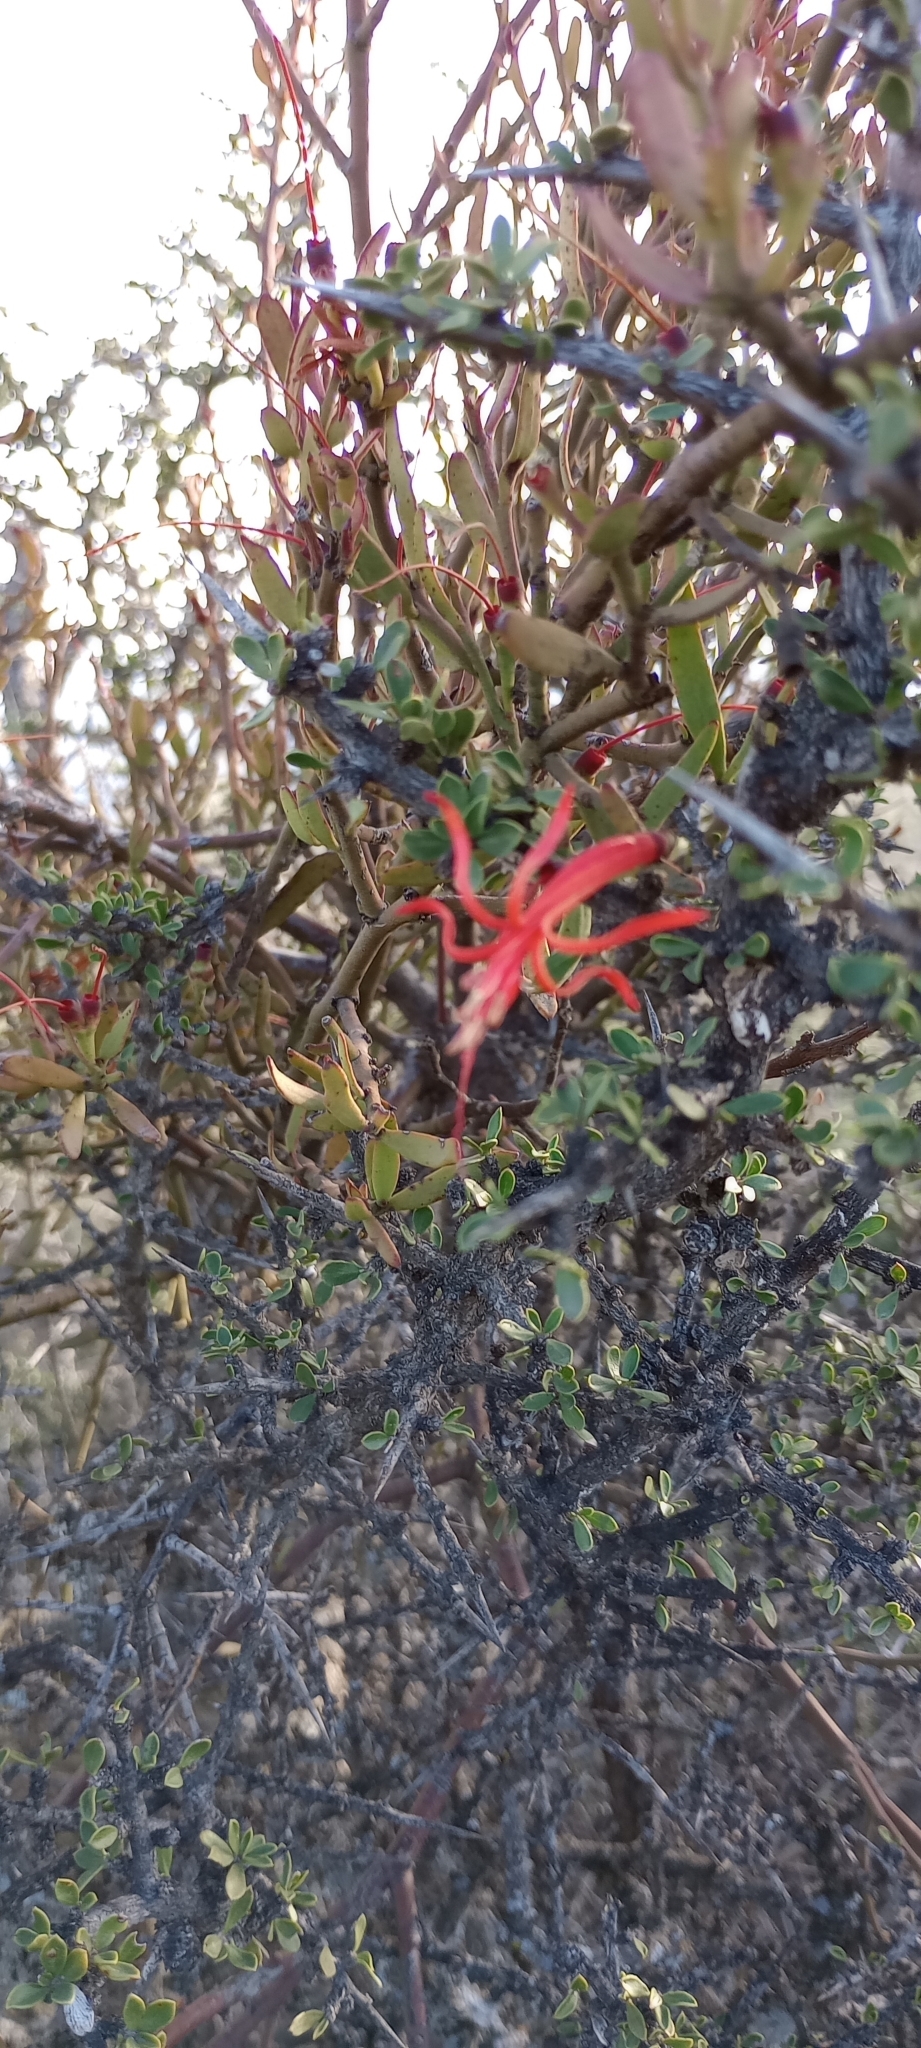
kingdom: Plantae
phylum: Tracheophyta
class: Magnoliopsida
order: Santalales
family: Loranthaceae
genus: Ligaria
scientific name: Ligaria cuneifolia
